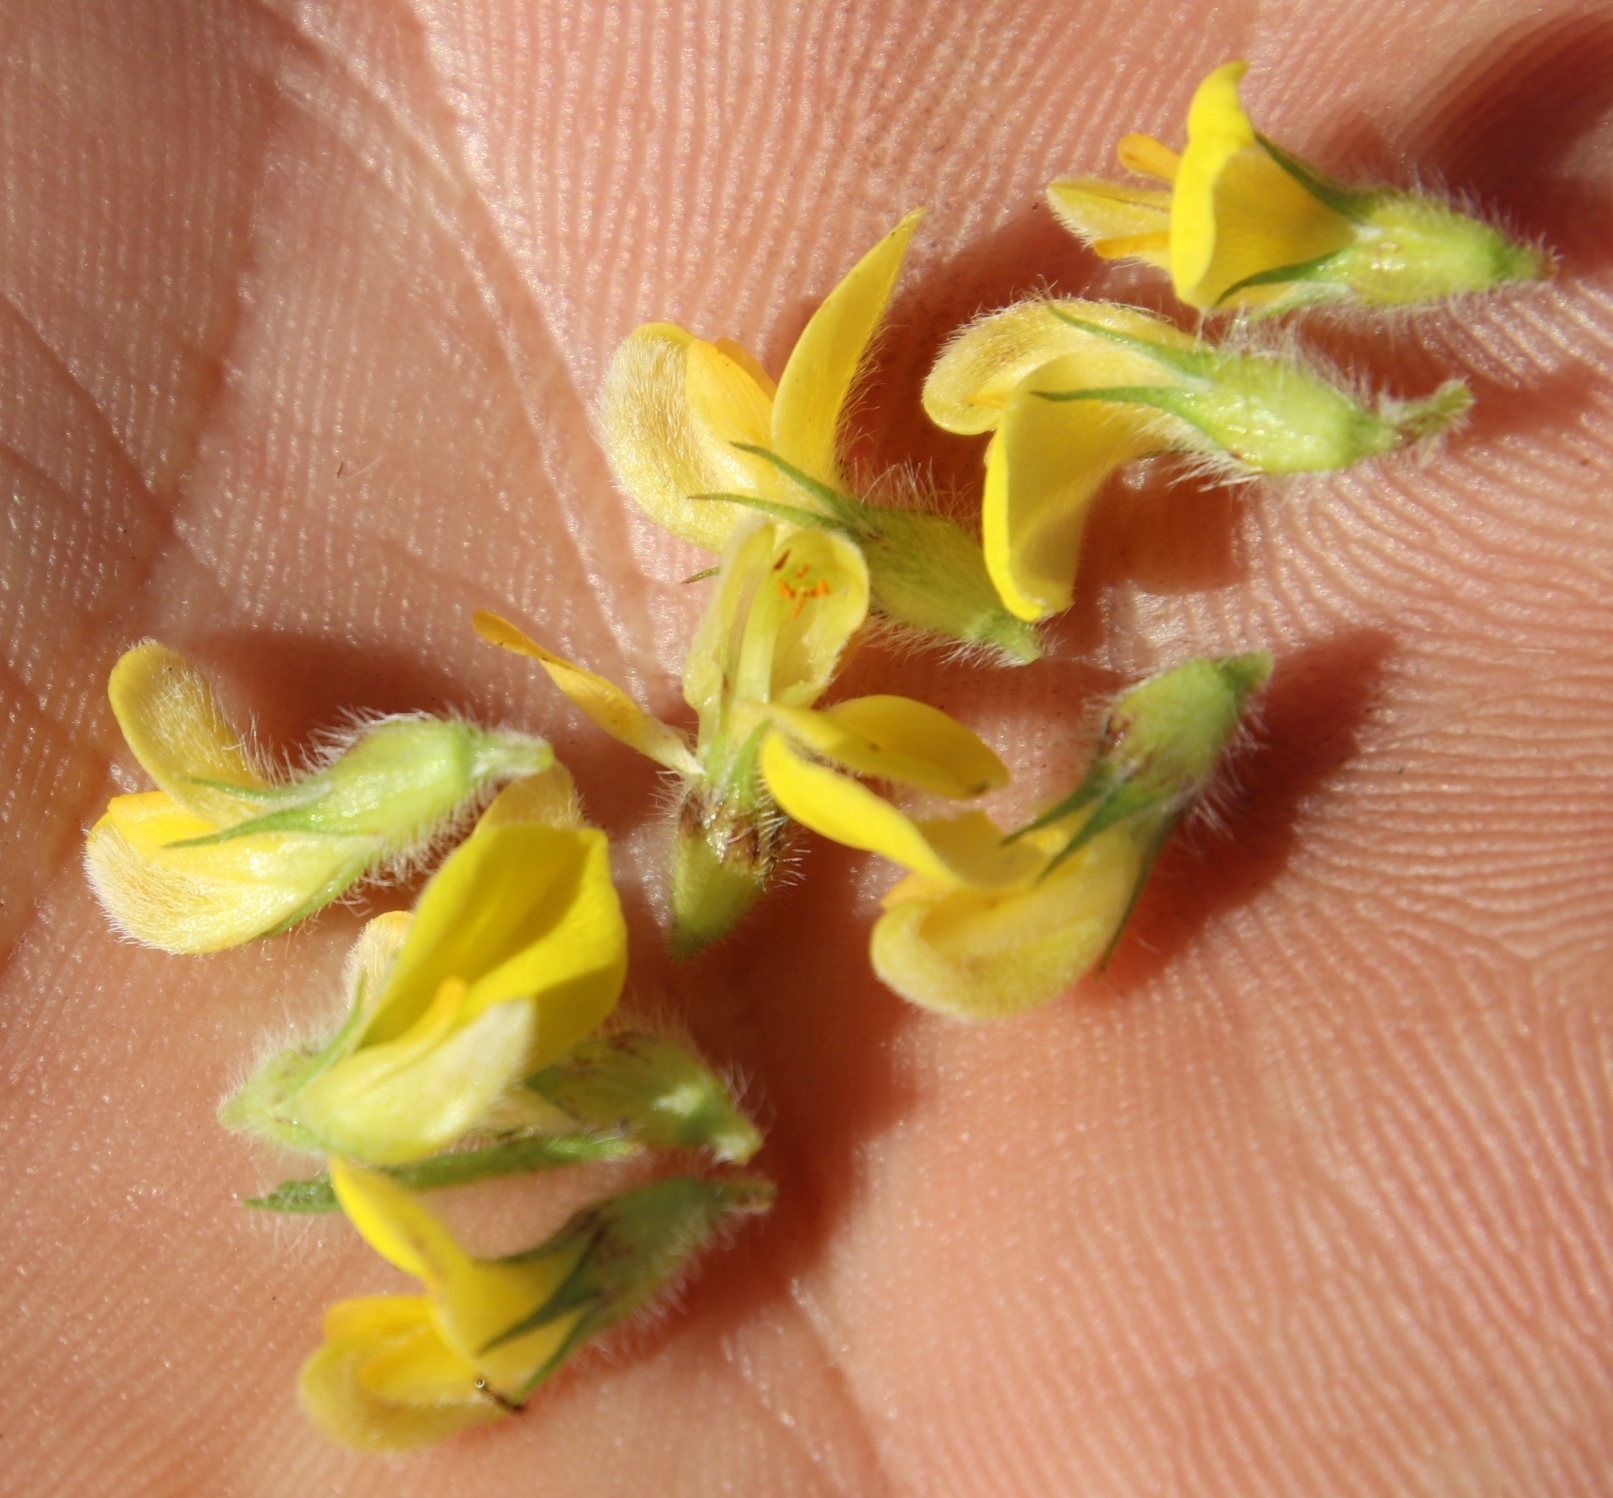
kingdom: Plantae
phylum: Tracheophyta
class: Magnoliopsida
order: Fabales
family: Fabaceae
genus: Leobordea
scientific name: Leobordea pulchra
